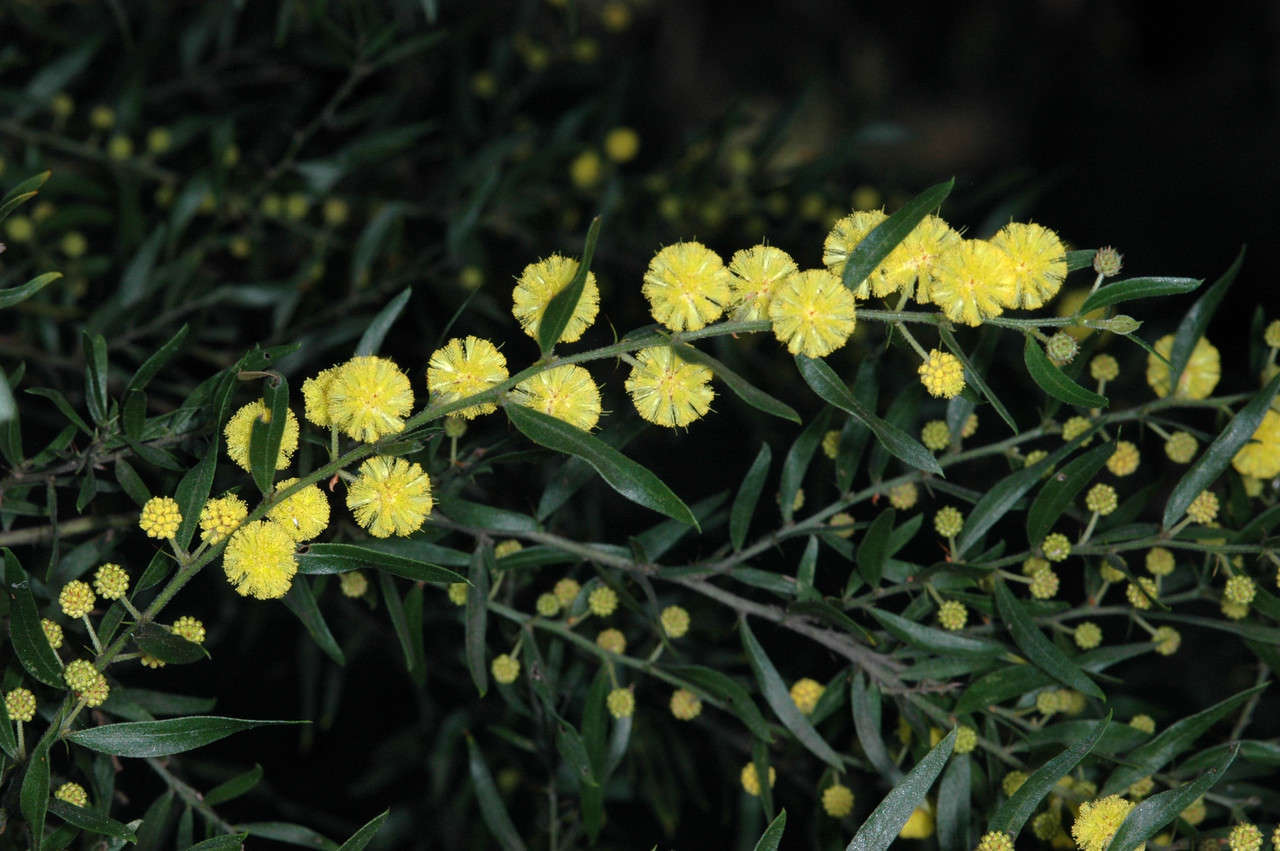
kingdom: Plantae
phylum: Tracheophyta
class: Magnoliopsida
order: Fabales
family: Fabaceae
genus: Acacia
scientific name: Acacia
